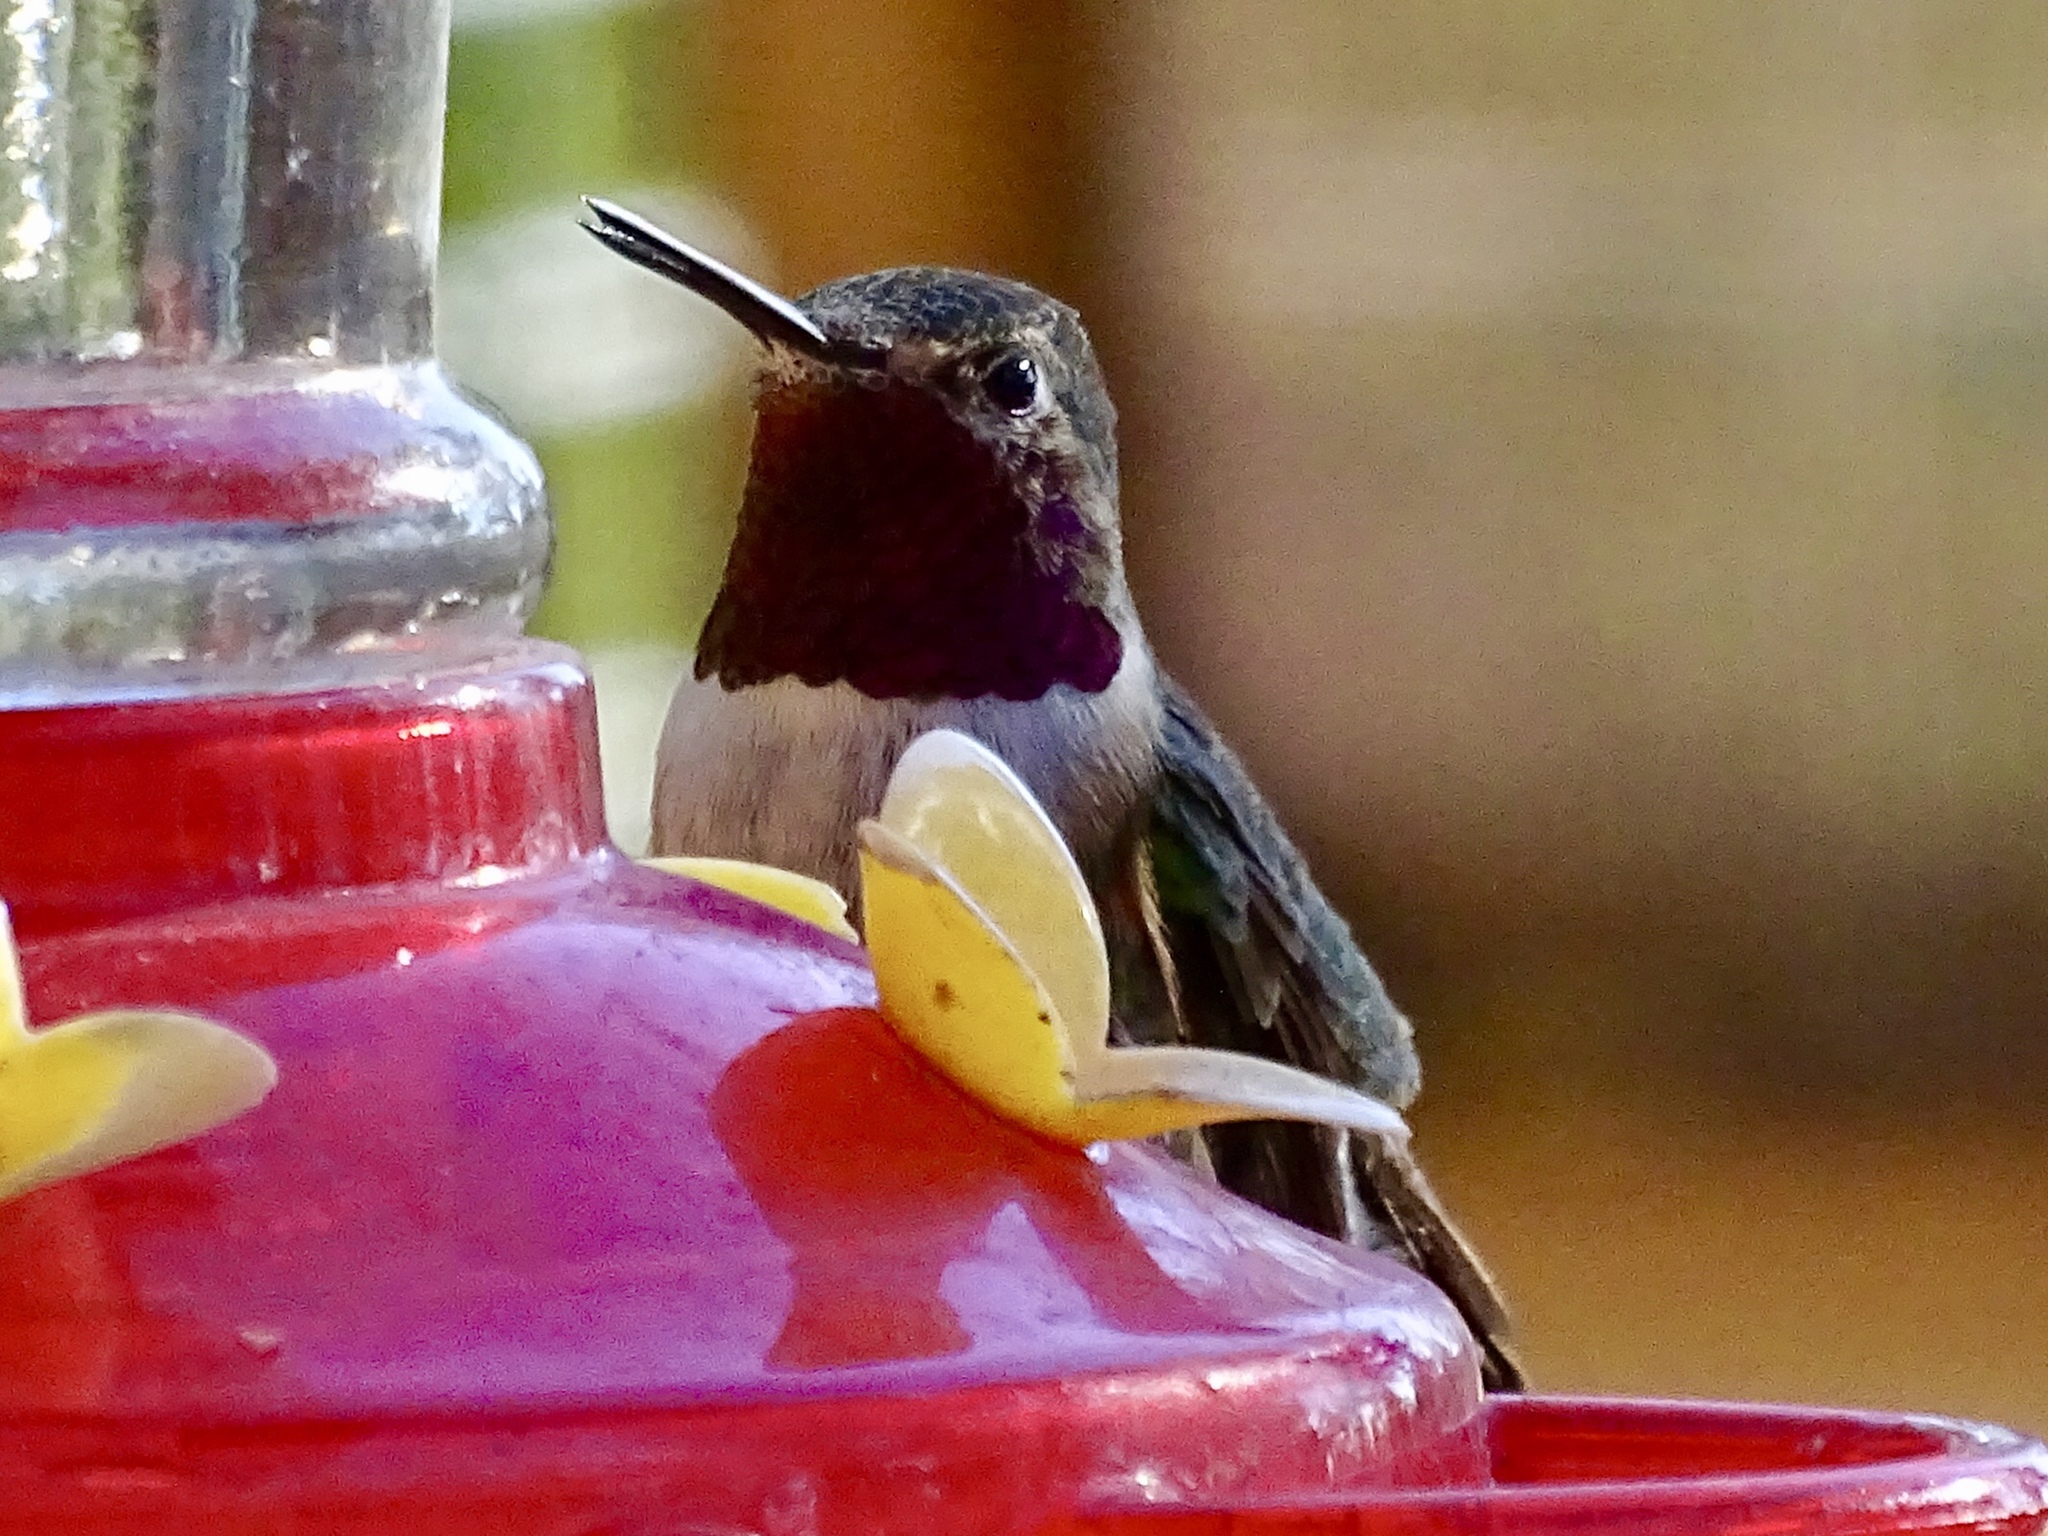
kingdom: Animalia
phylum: Chordata
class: Aves
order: Apodiformes
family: Trochilidae
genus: Selasphorus
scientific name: Selasphorus platycercus
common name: Broad-tailed hummingbird
